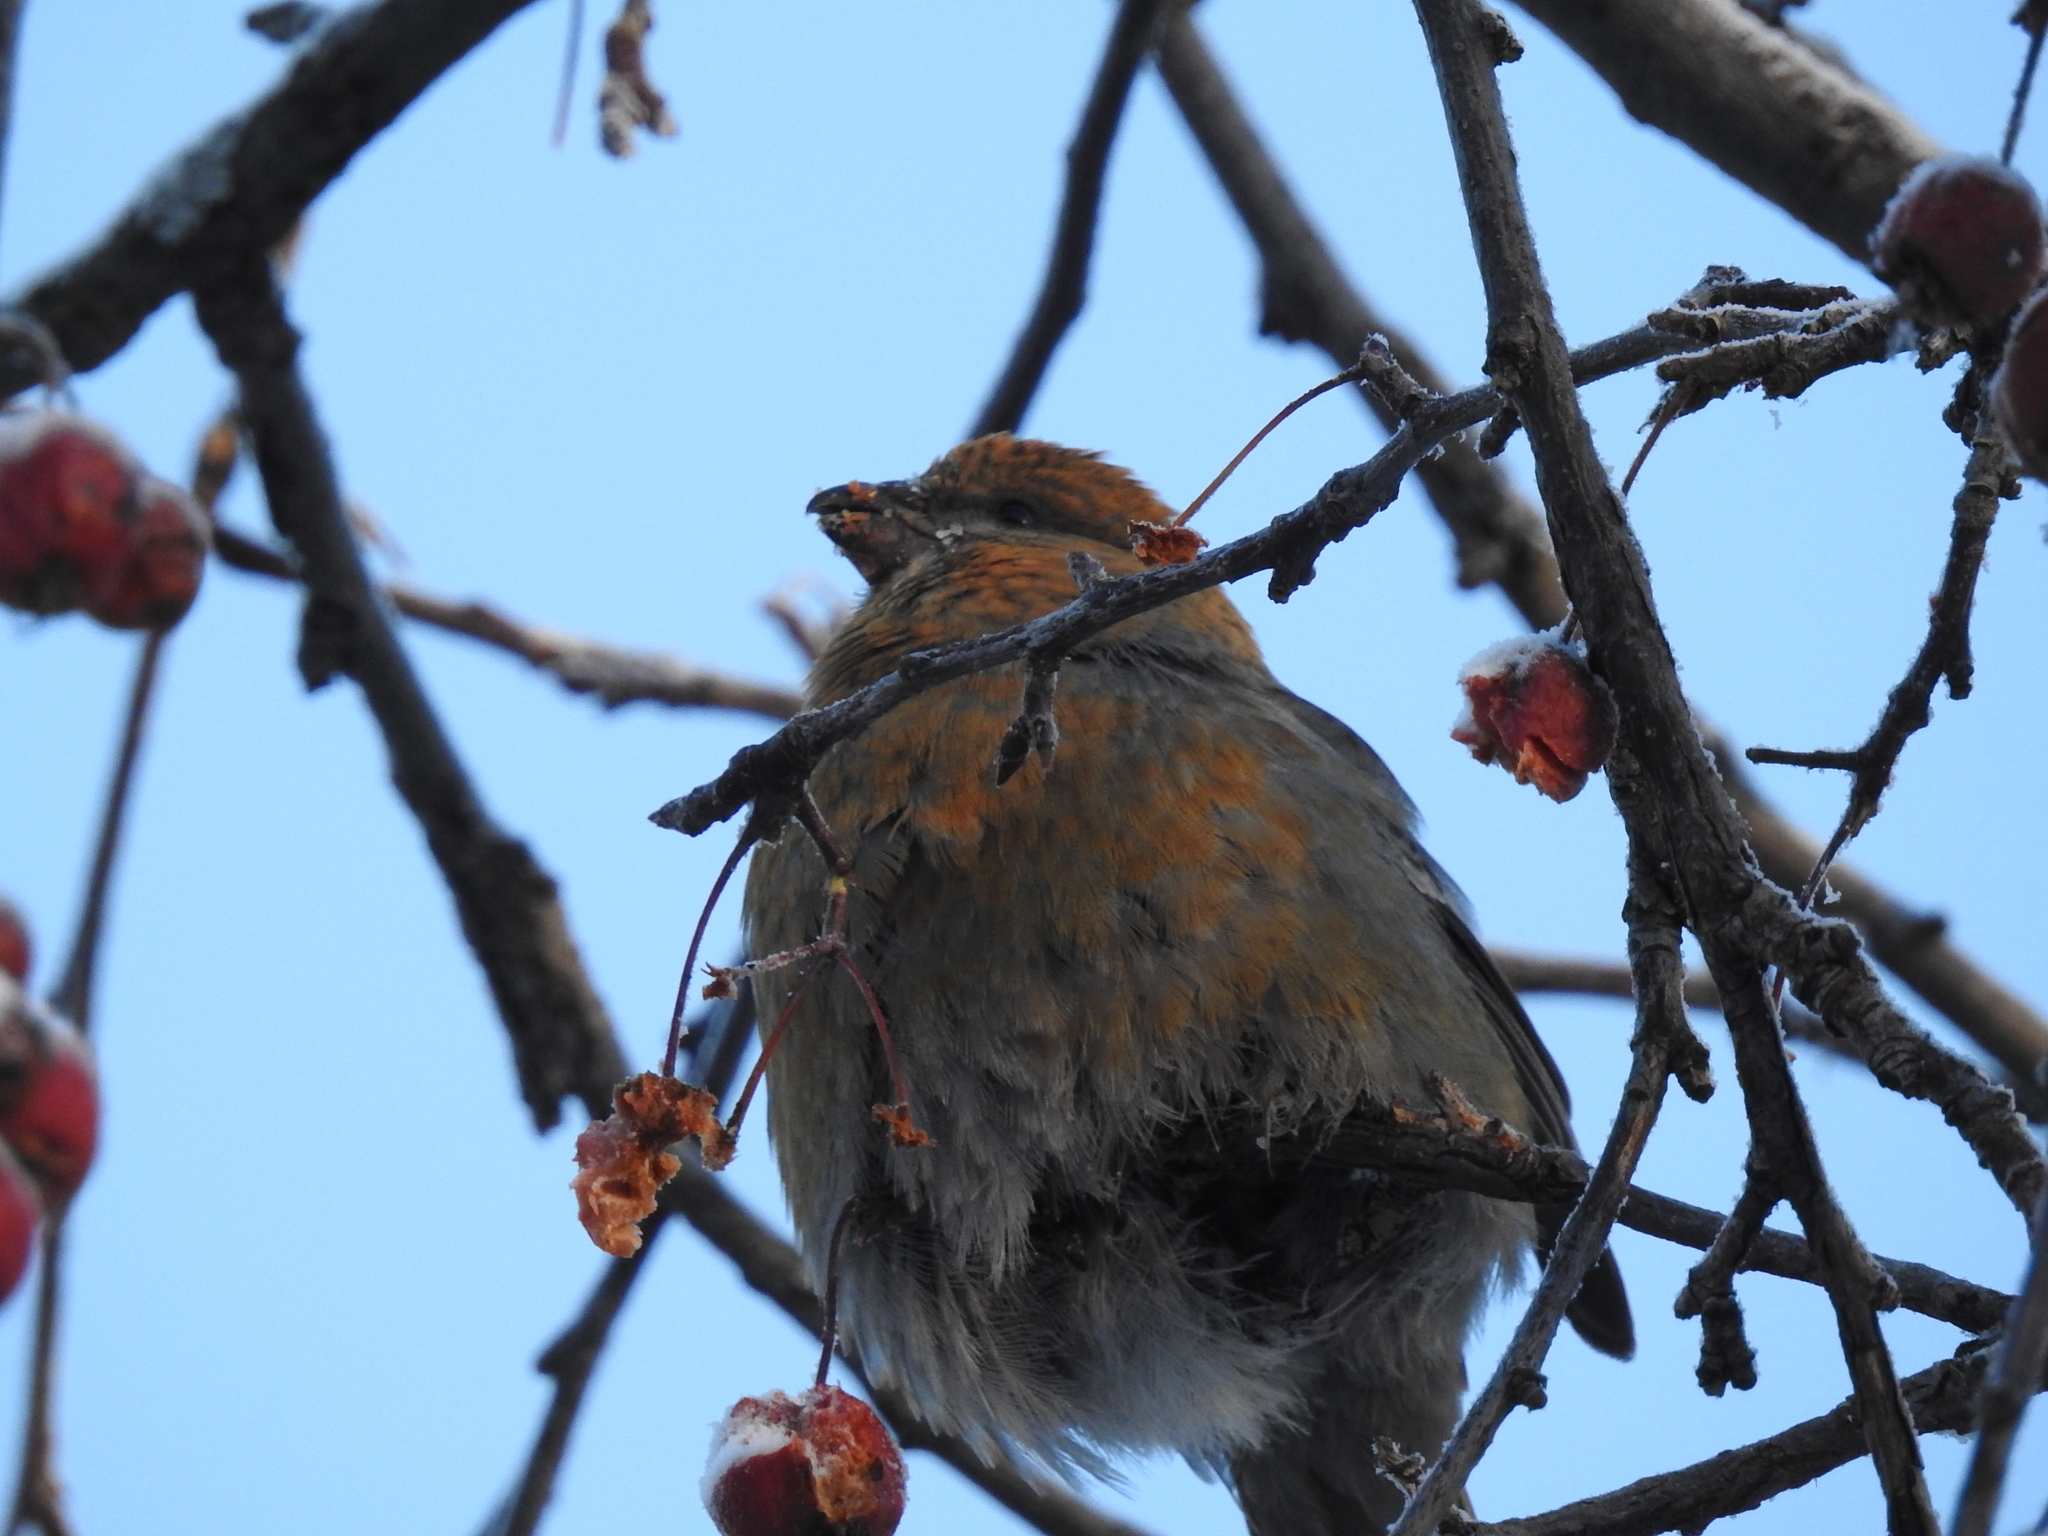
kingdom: Animalia
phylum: Chordata
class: Aves
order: Passeriformes
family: Fringillidae
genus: Pinicola
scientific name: Pinicola enucleator
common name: Pine grosbeak
